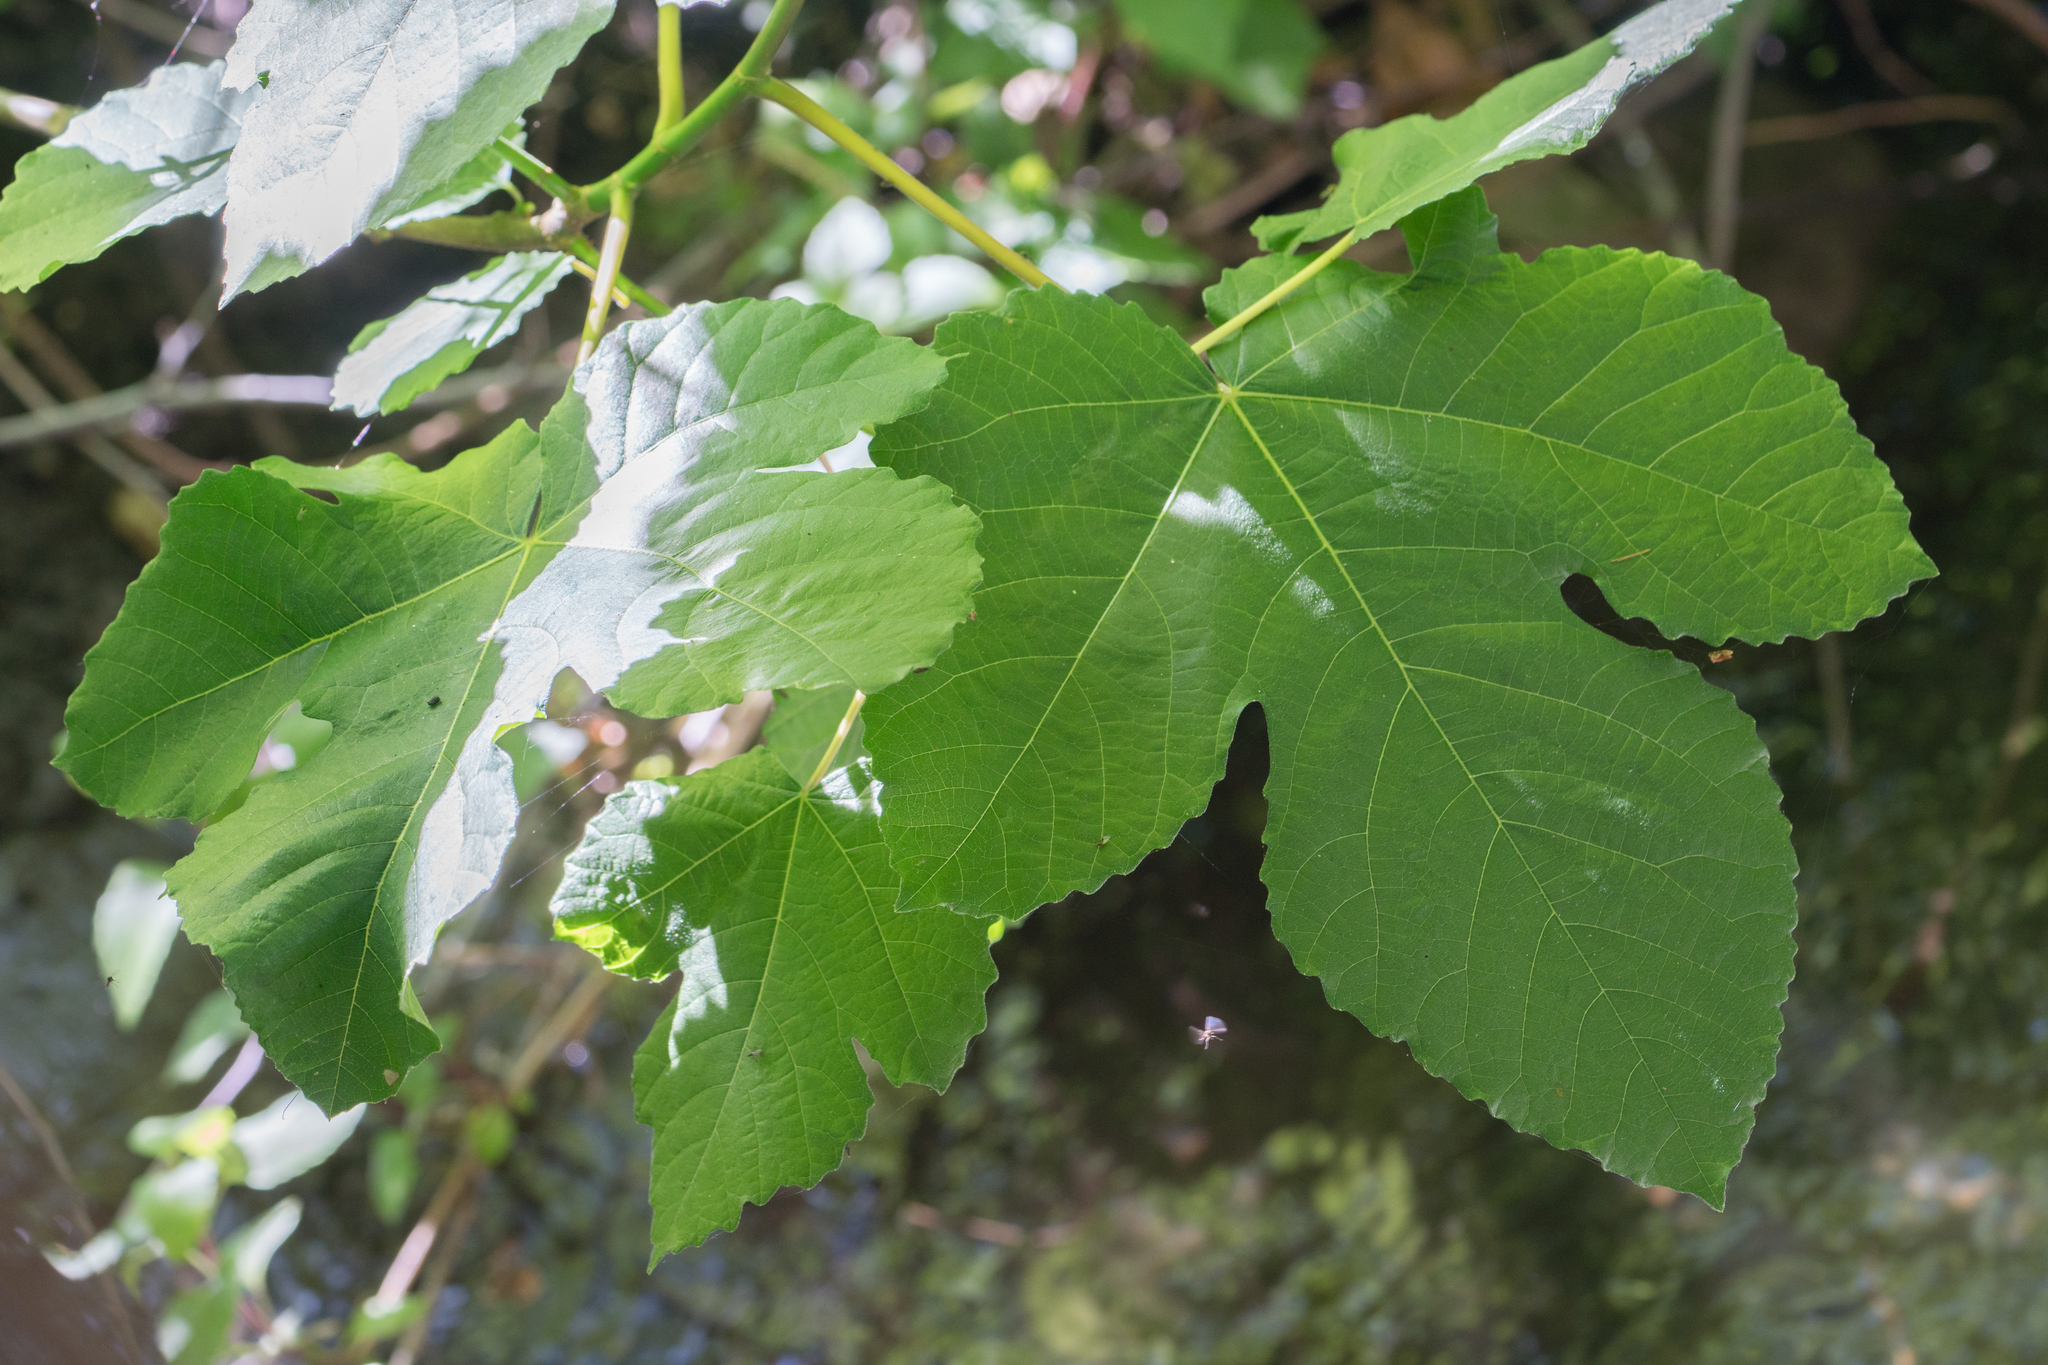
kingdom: Plantae
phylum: Tracheophyta
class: Magnoliopsida
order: Rosales
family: Moraceae
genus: Ficus
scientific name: Ficus carica
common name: Fig
